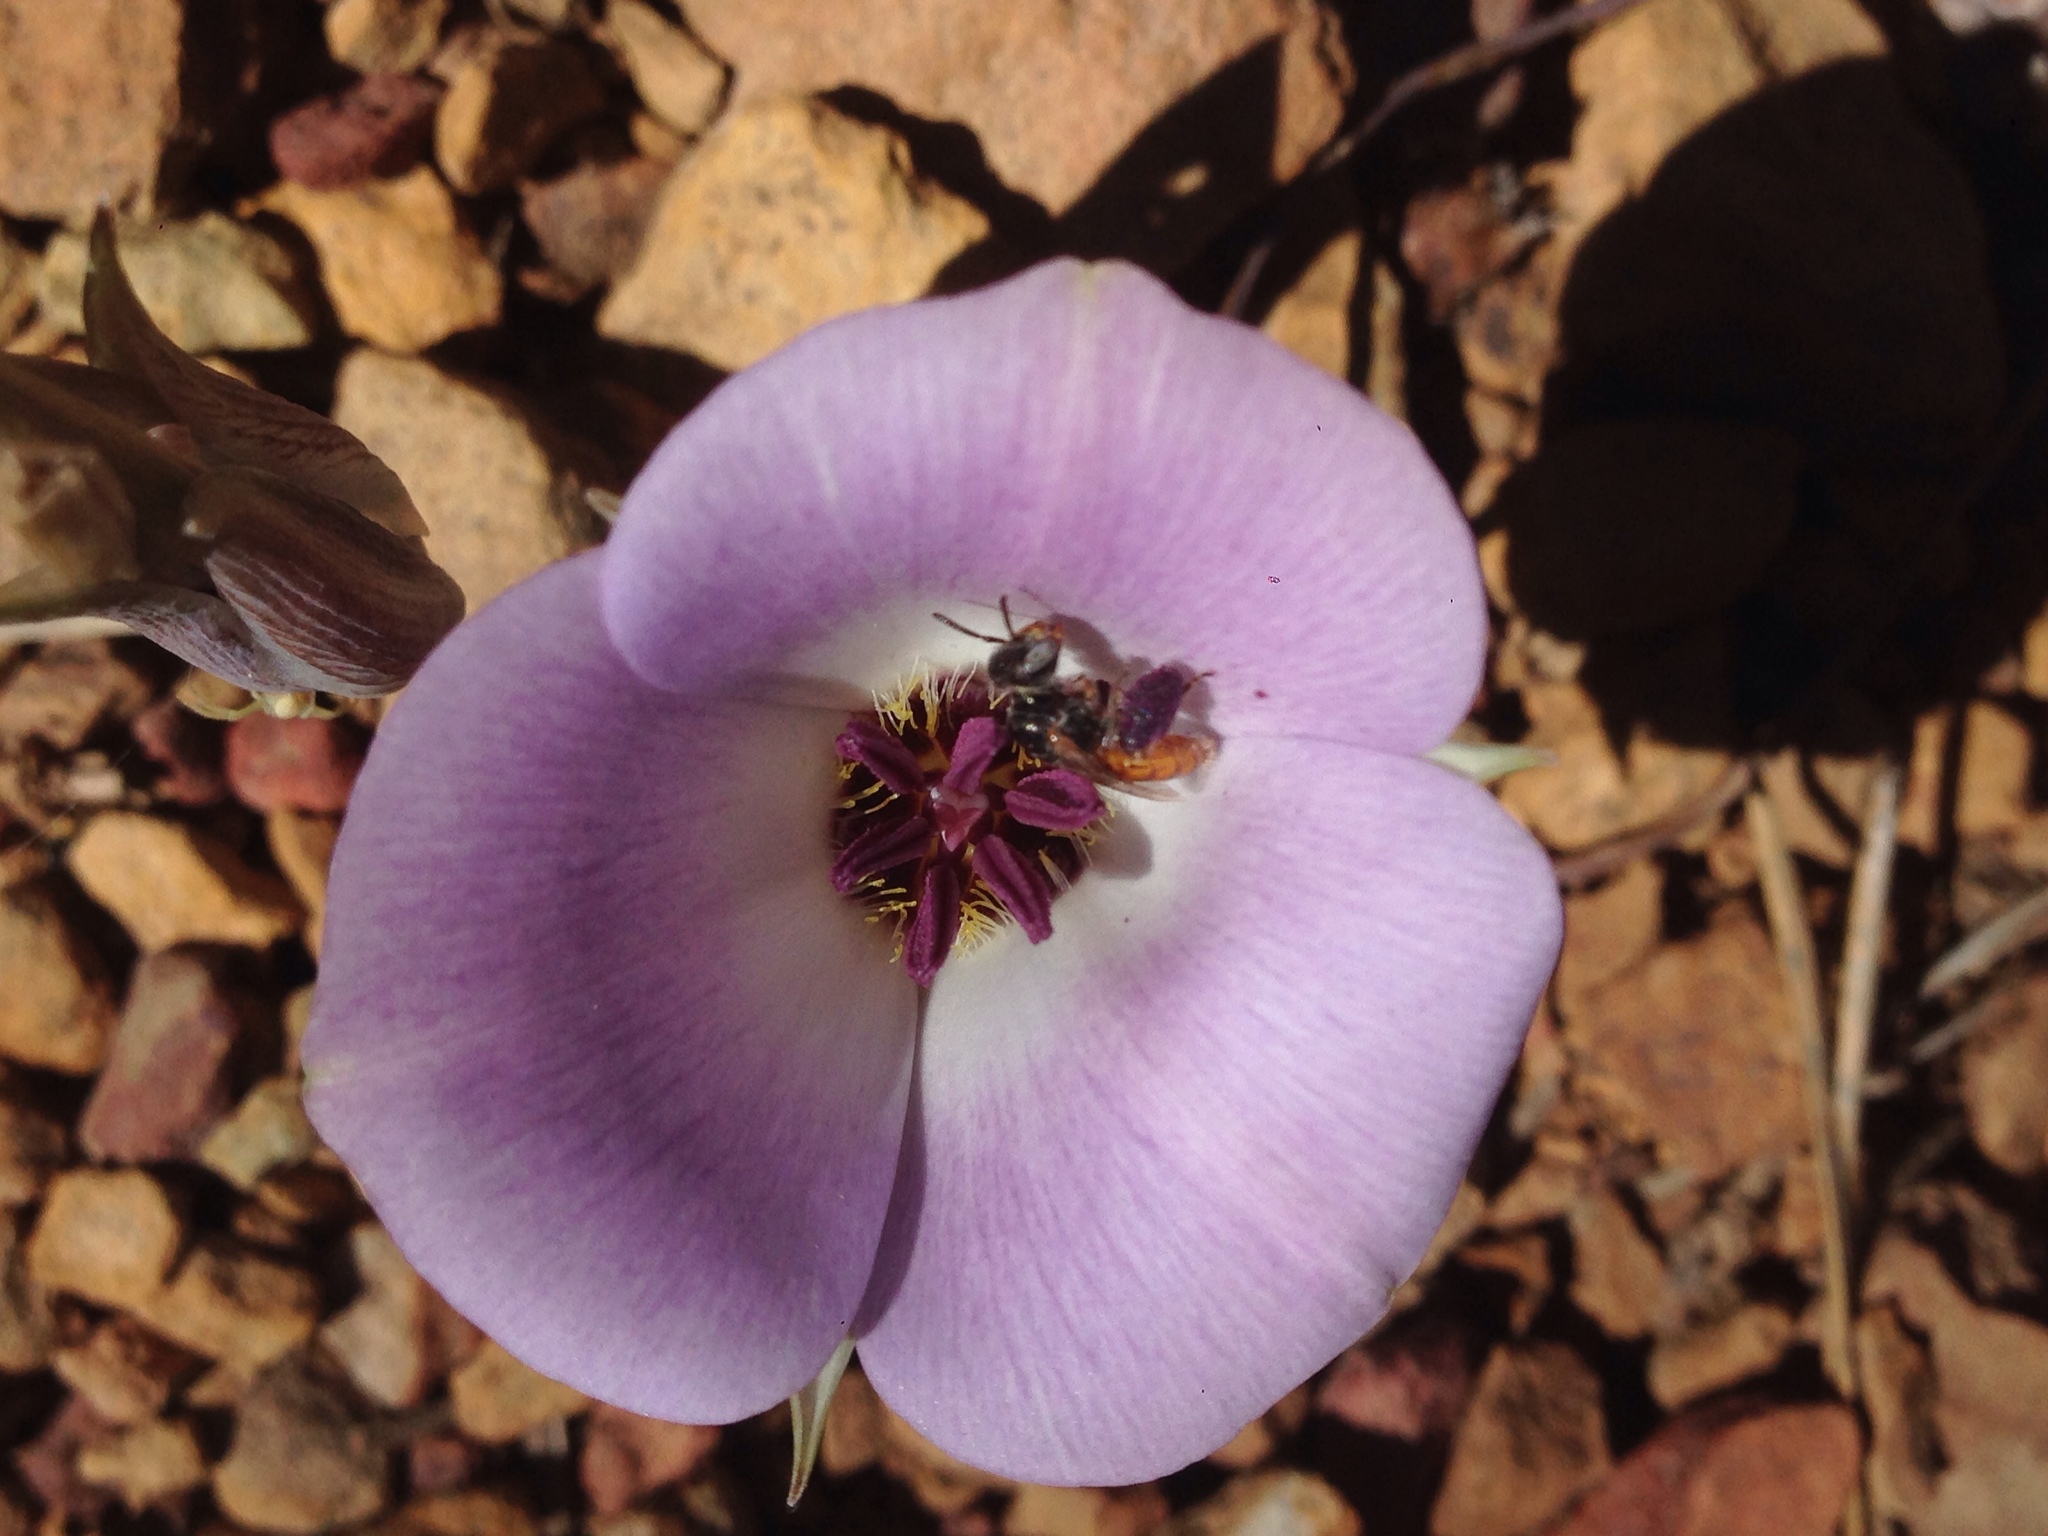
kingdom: Plantae
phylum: Tracheophyta
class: Liliopsida
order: Liliales
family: Liliaceae
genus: Calochortus
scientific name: Calochortus invenustus
